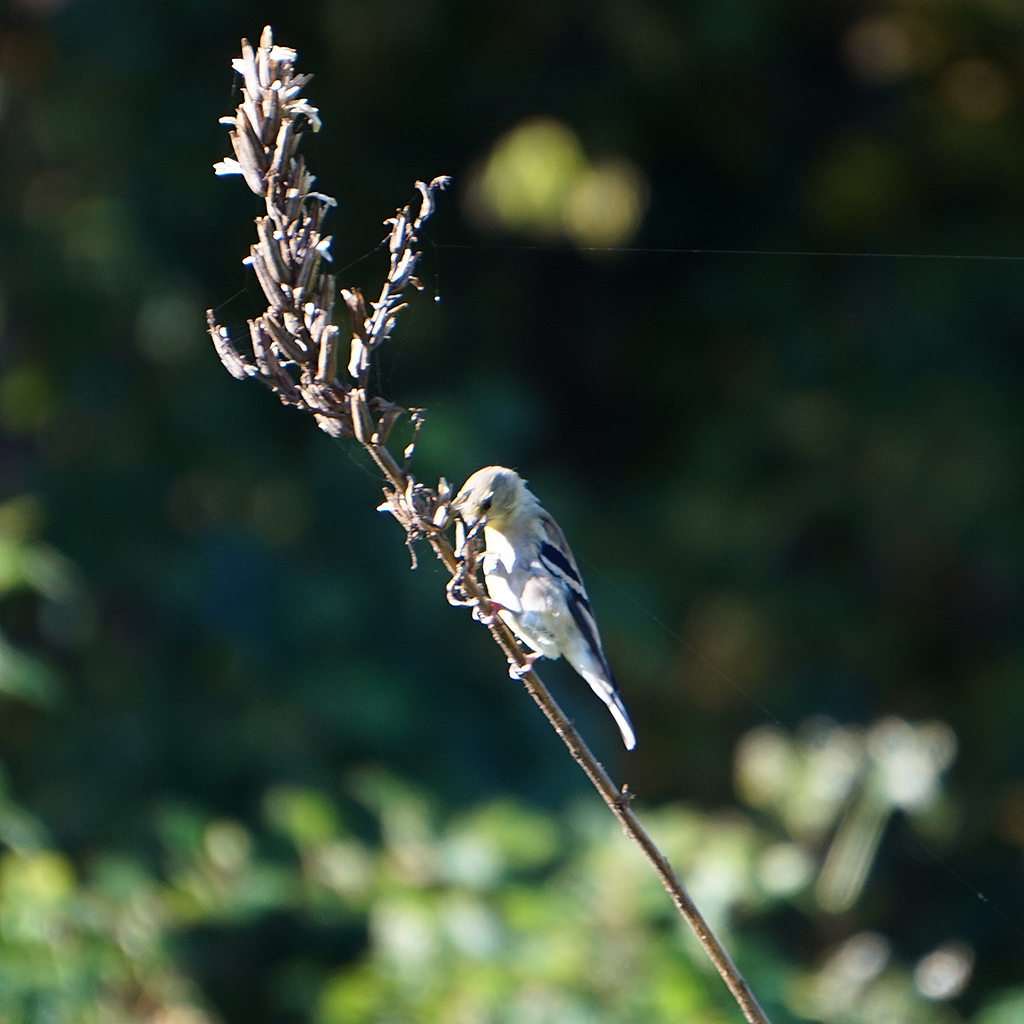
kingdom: Animalia
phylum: Chordata
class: Aves
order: Passeriformes
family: Fringillidae
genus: Spinus
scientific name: Spinus tristis
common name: American goldfinch
